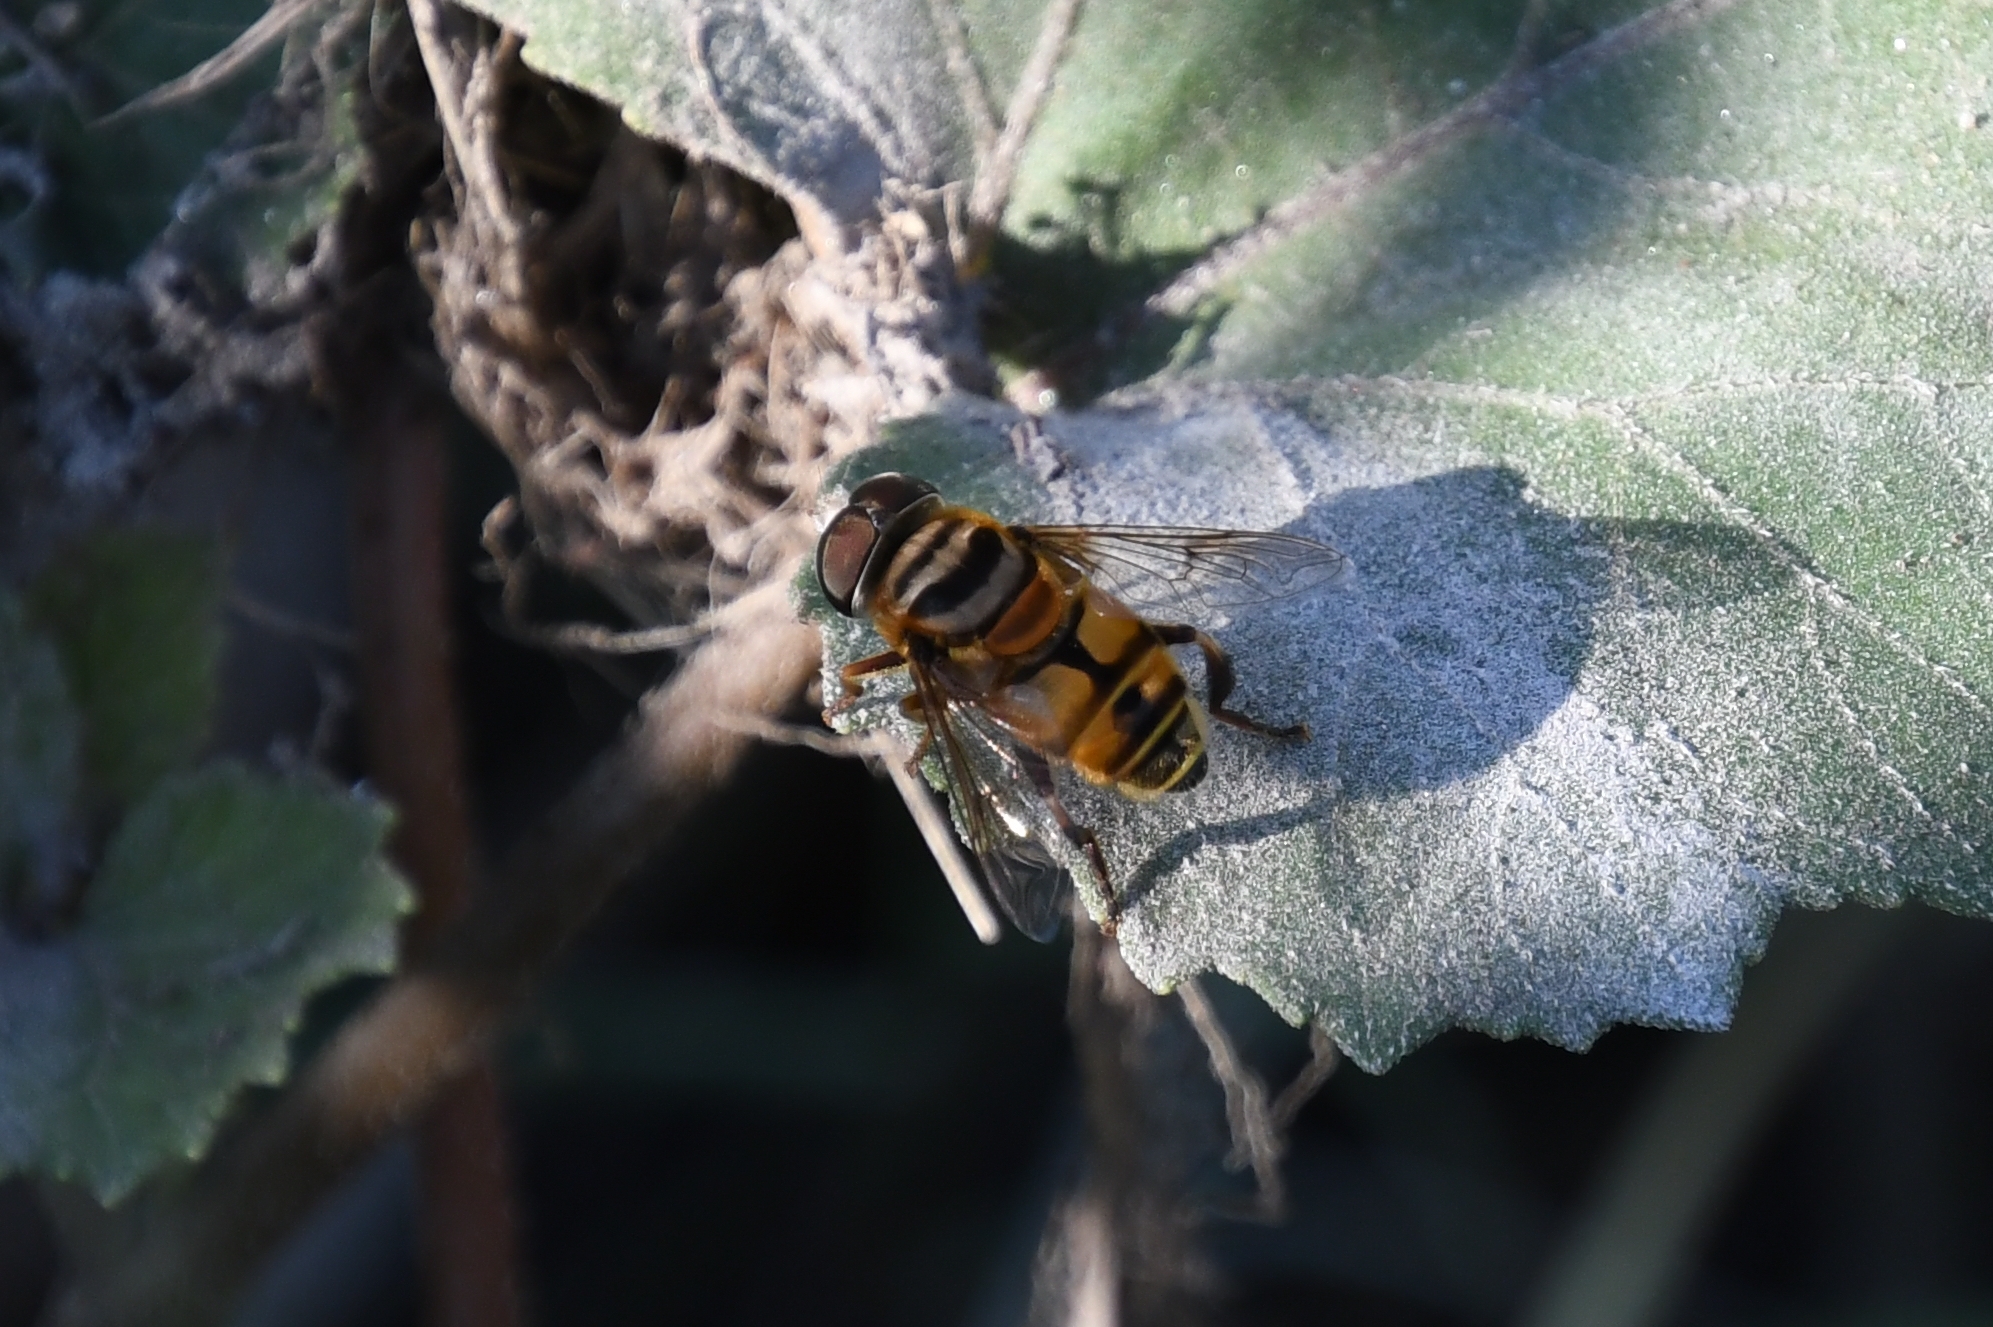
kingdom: Animalia
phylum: Arthropoda
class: Insecta
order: Diptera
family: Syrphidae
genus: Palpada
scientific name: Palpada vinetorum
